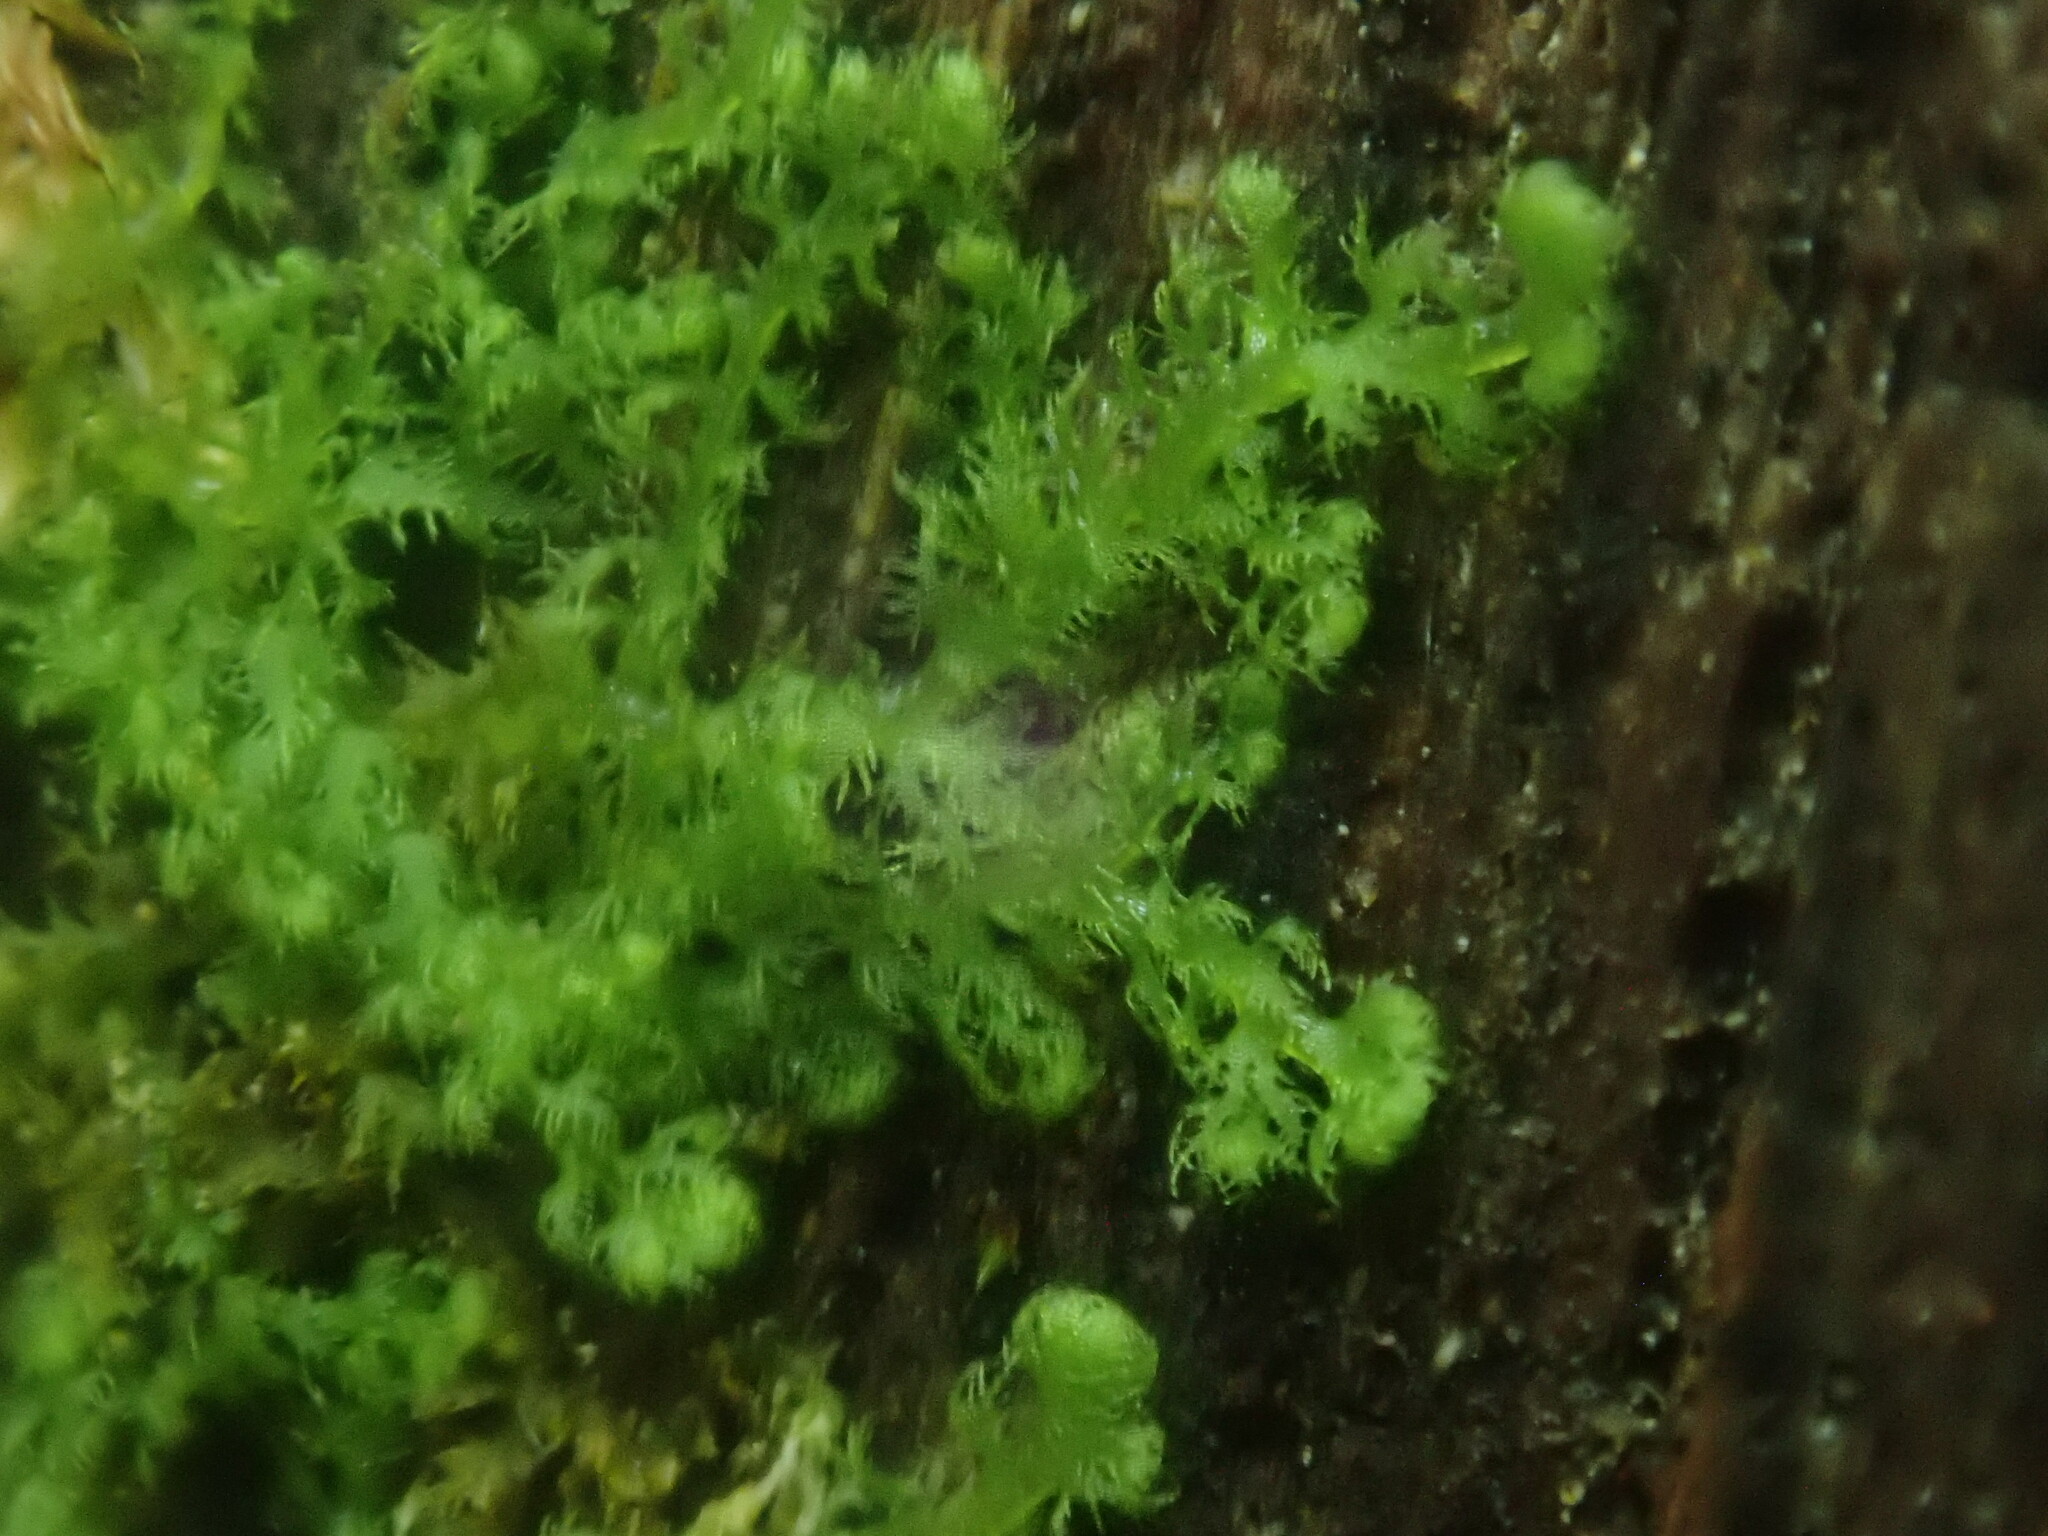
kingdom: Plantae
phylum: Marchantiophyta
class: Jungermanniopsida
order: Ptilidiales
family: Ptilidiaceae
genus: Ptilidium
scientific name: Ptilidium pulcherrimum
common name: Tree fringewort
